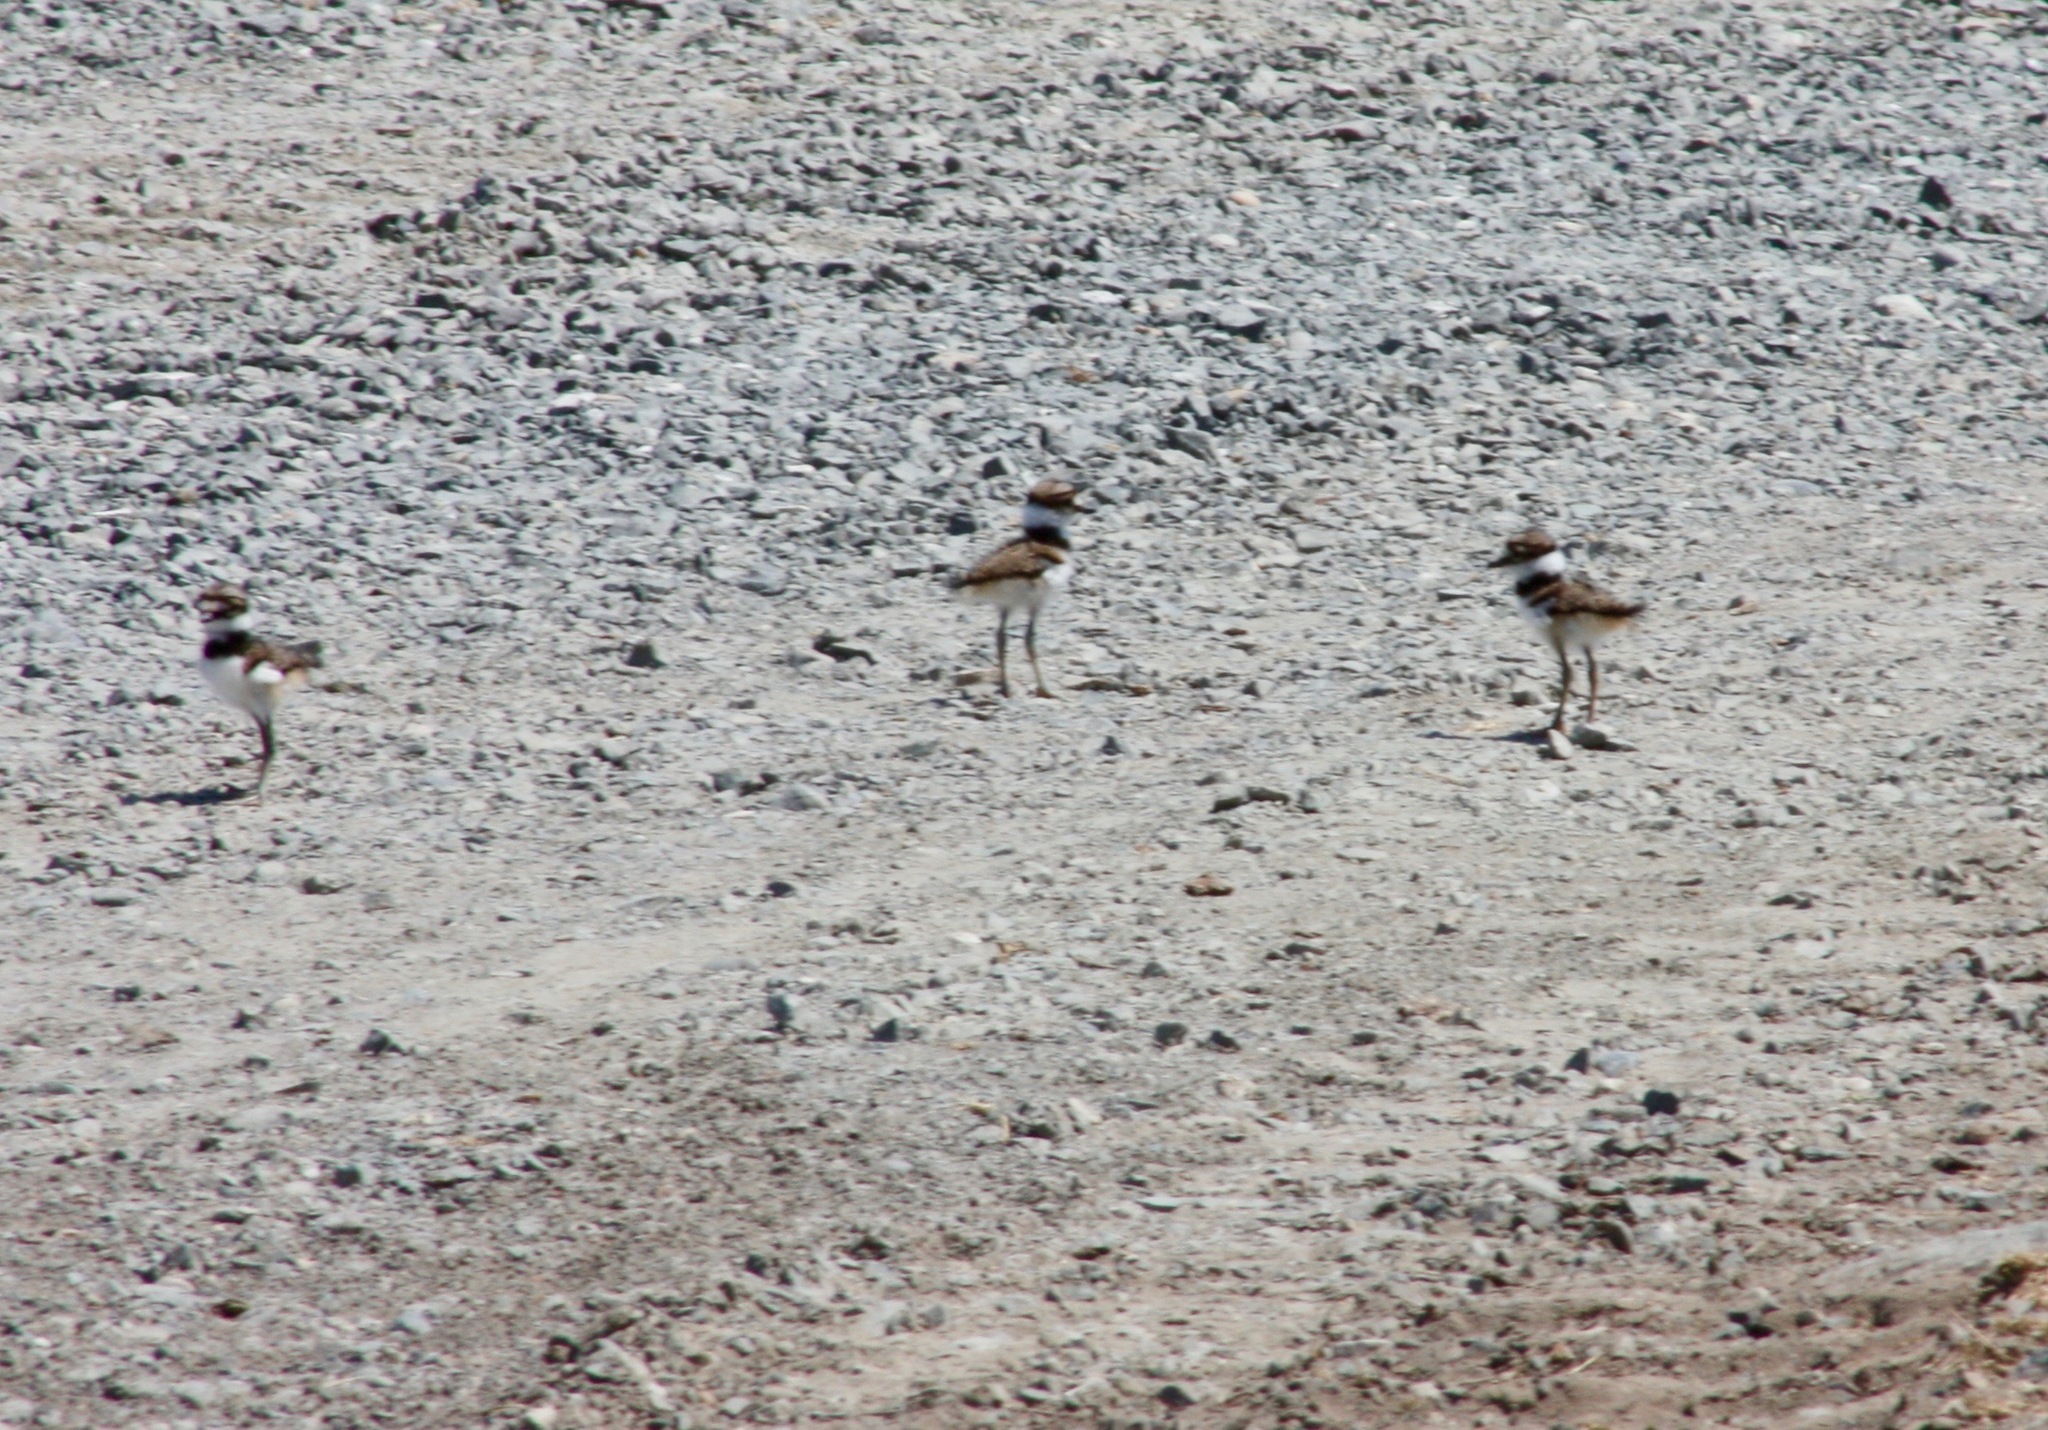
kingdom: Animalia
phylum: Chordata
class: Aves
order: Charadriiformes
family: Charadriidae
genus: Charadrius
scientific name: Charadrius vociferus
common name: Killdeer
